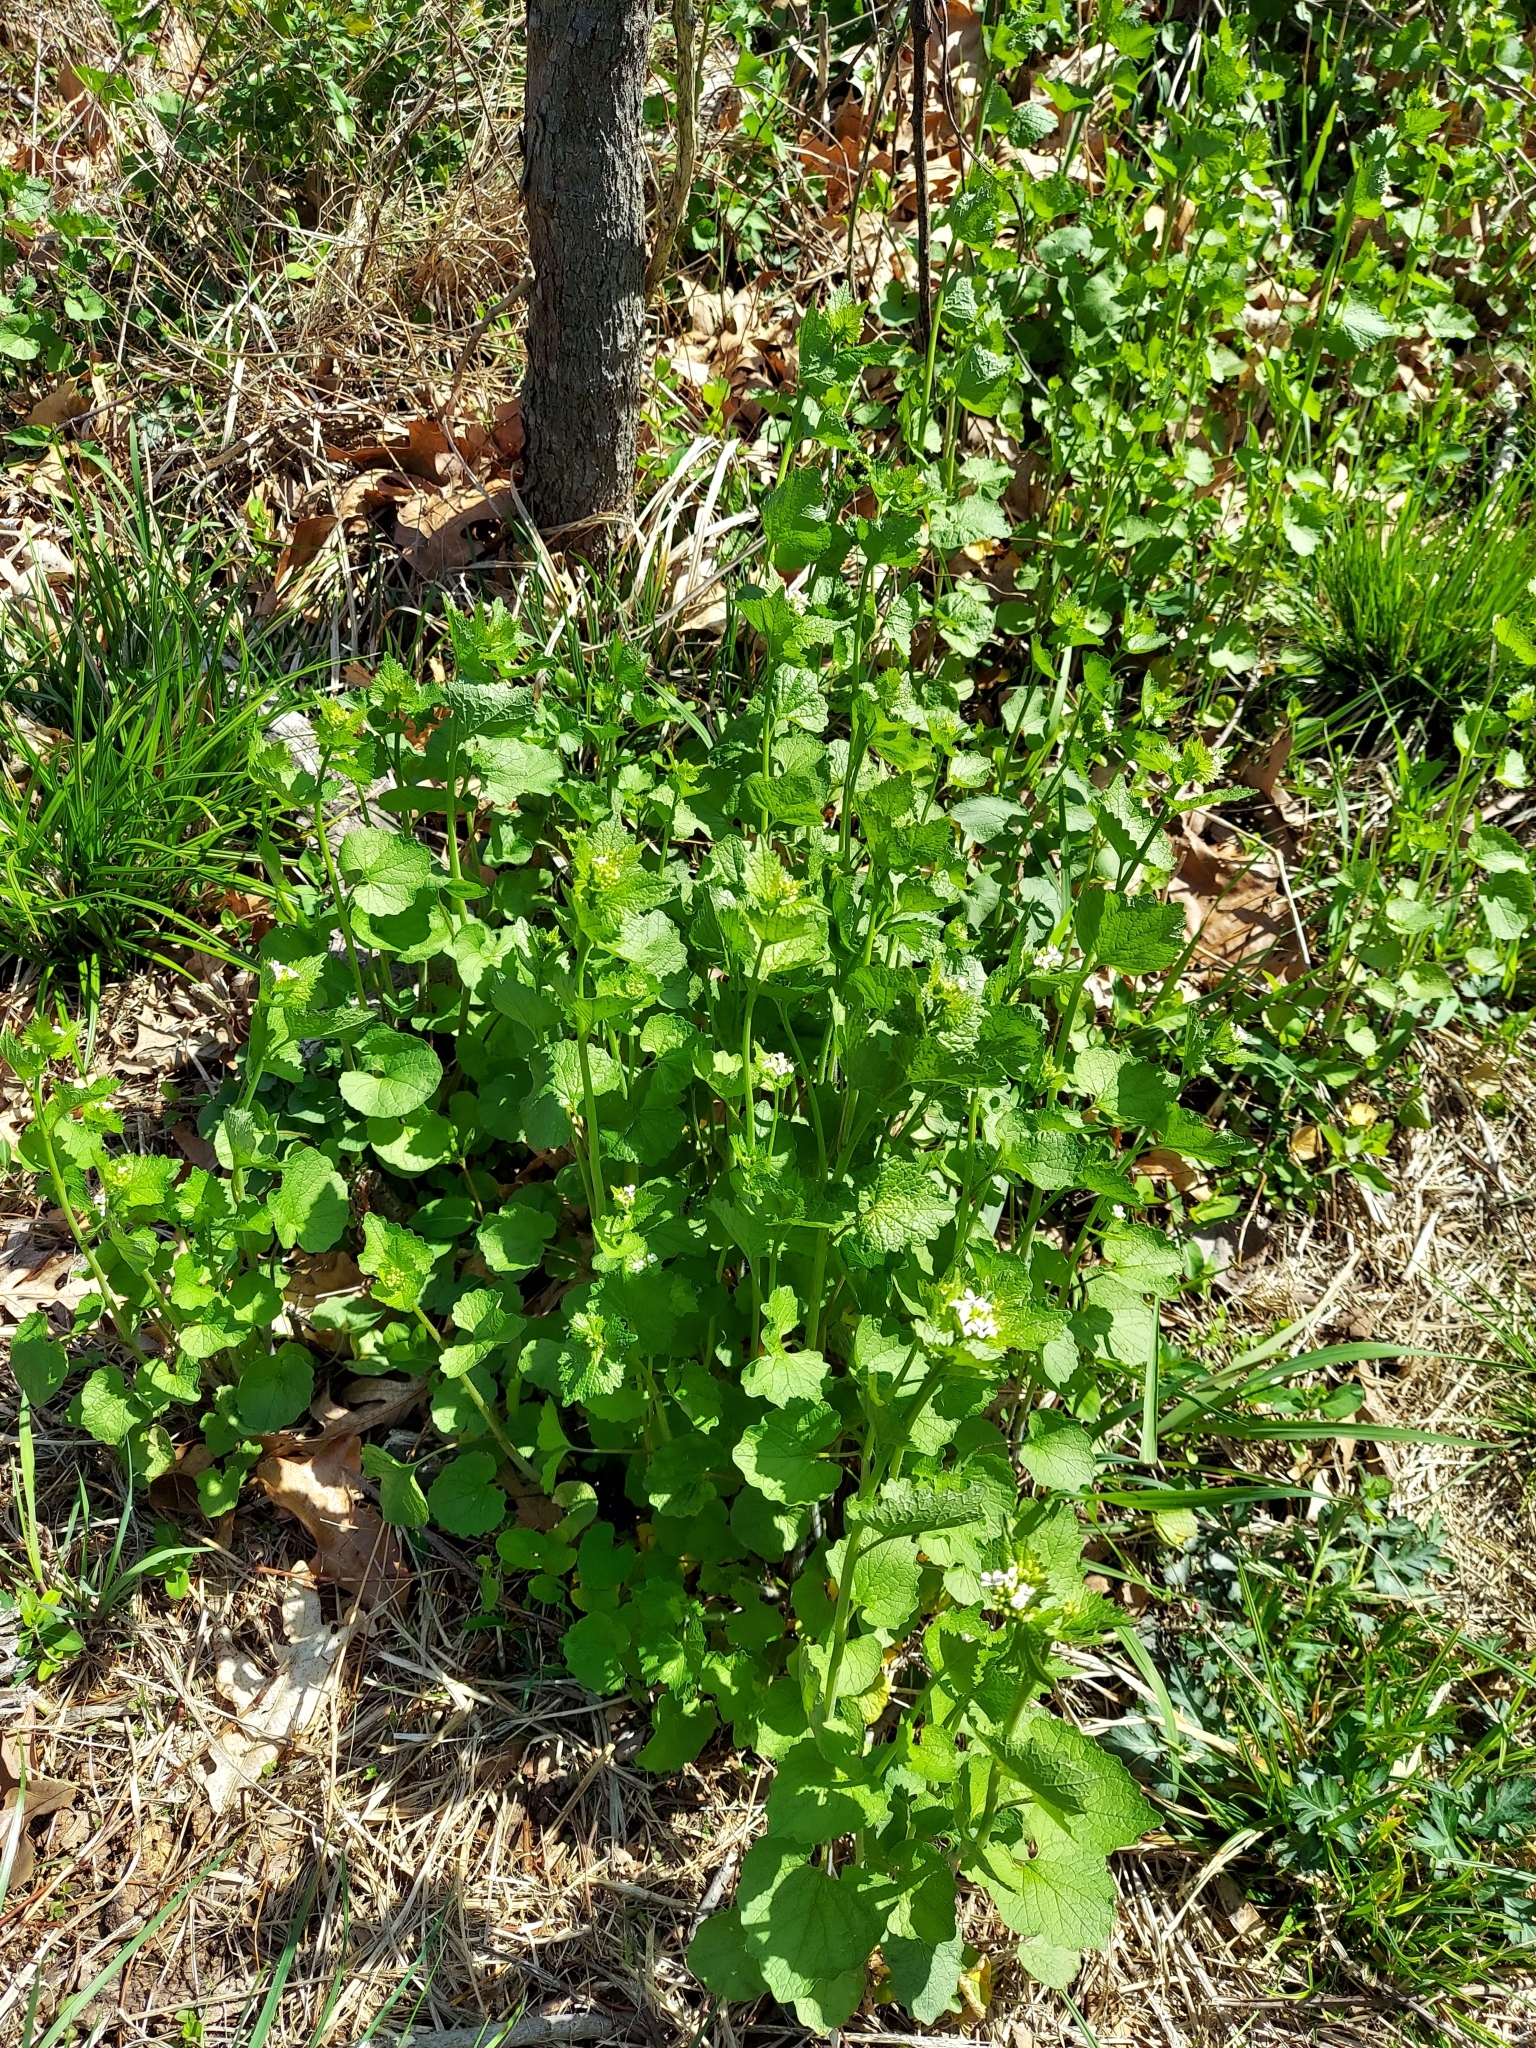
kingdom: Plantae
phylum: Tracheophyta
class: Magnoliopsida
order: Brassicales
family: Brassicaceae
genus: Alliaria
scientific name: Alliaria petiolata
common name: Garlic mustard
